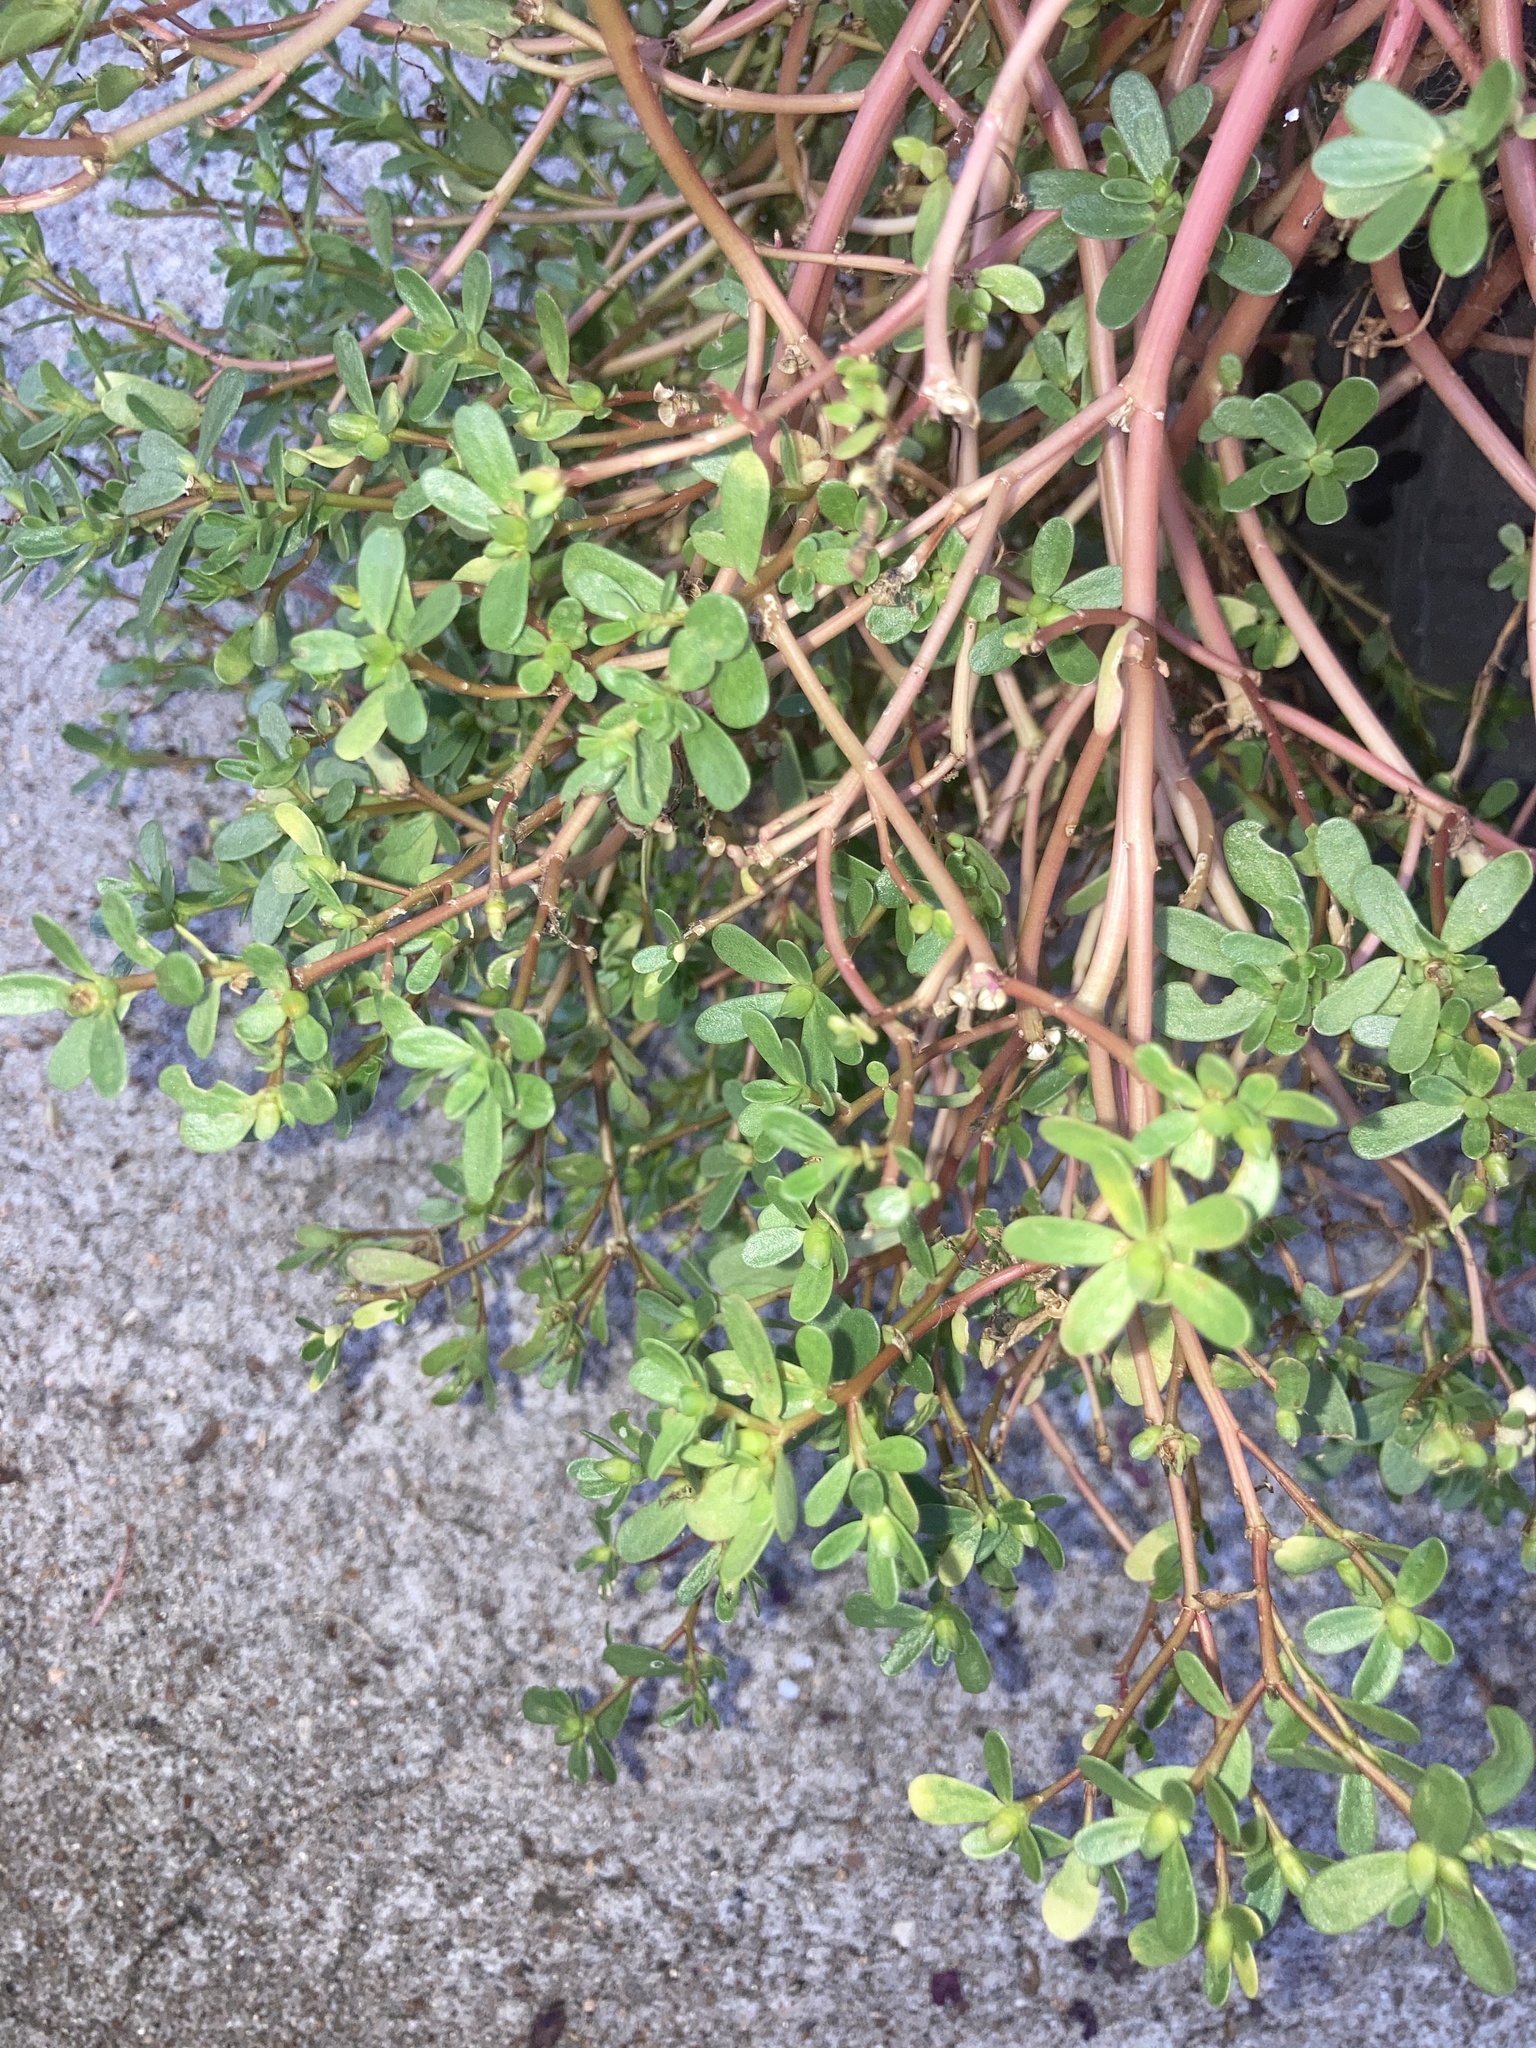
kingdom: Plantae
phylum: Tracheophyta
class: Magnoliopsida
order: Caryophyllales
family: Portulacaceae
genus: Portulaca
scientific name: Portulaca oleracea
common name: Common purslane
